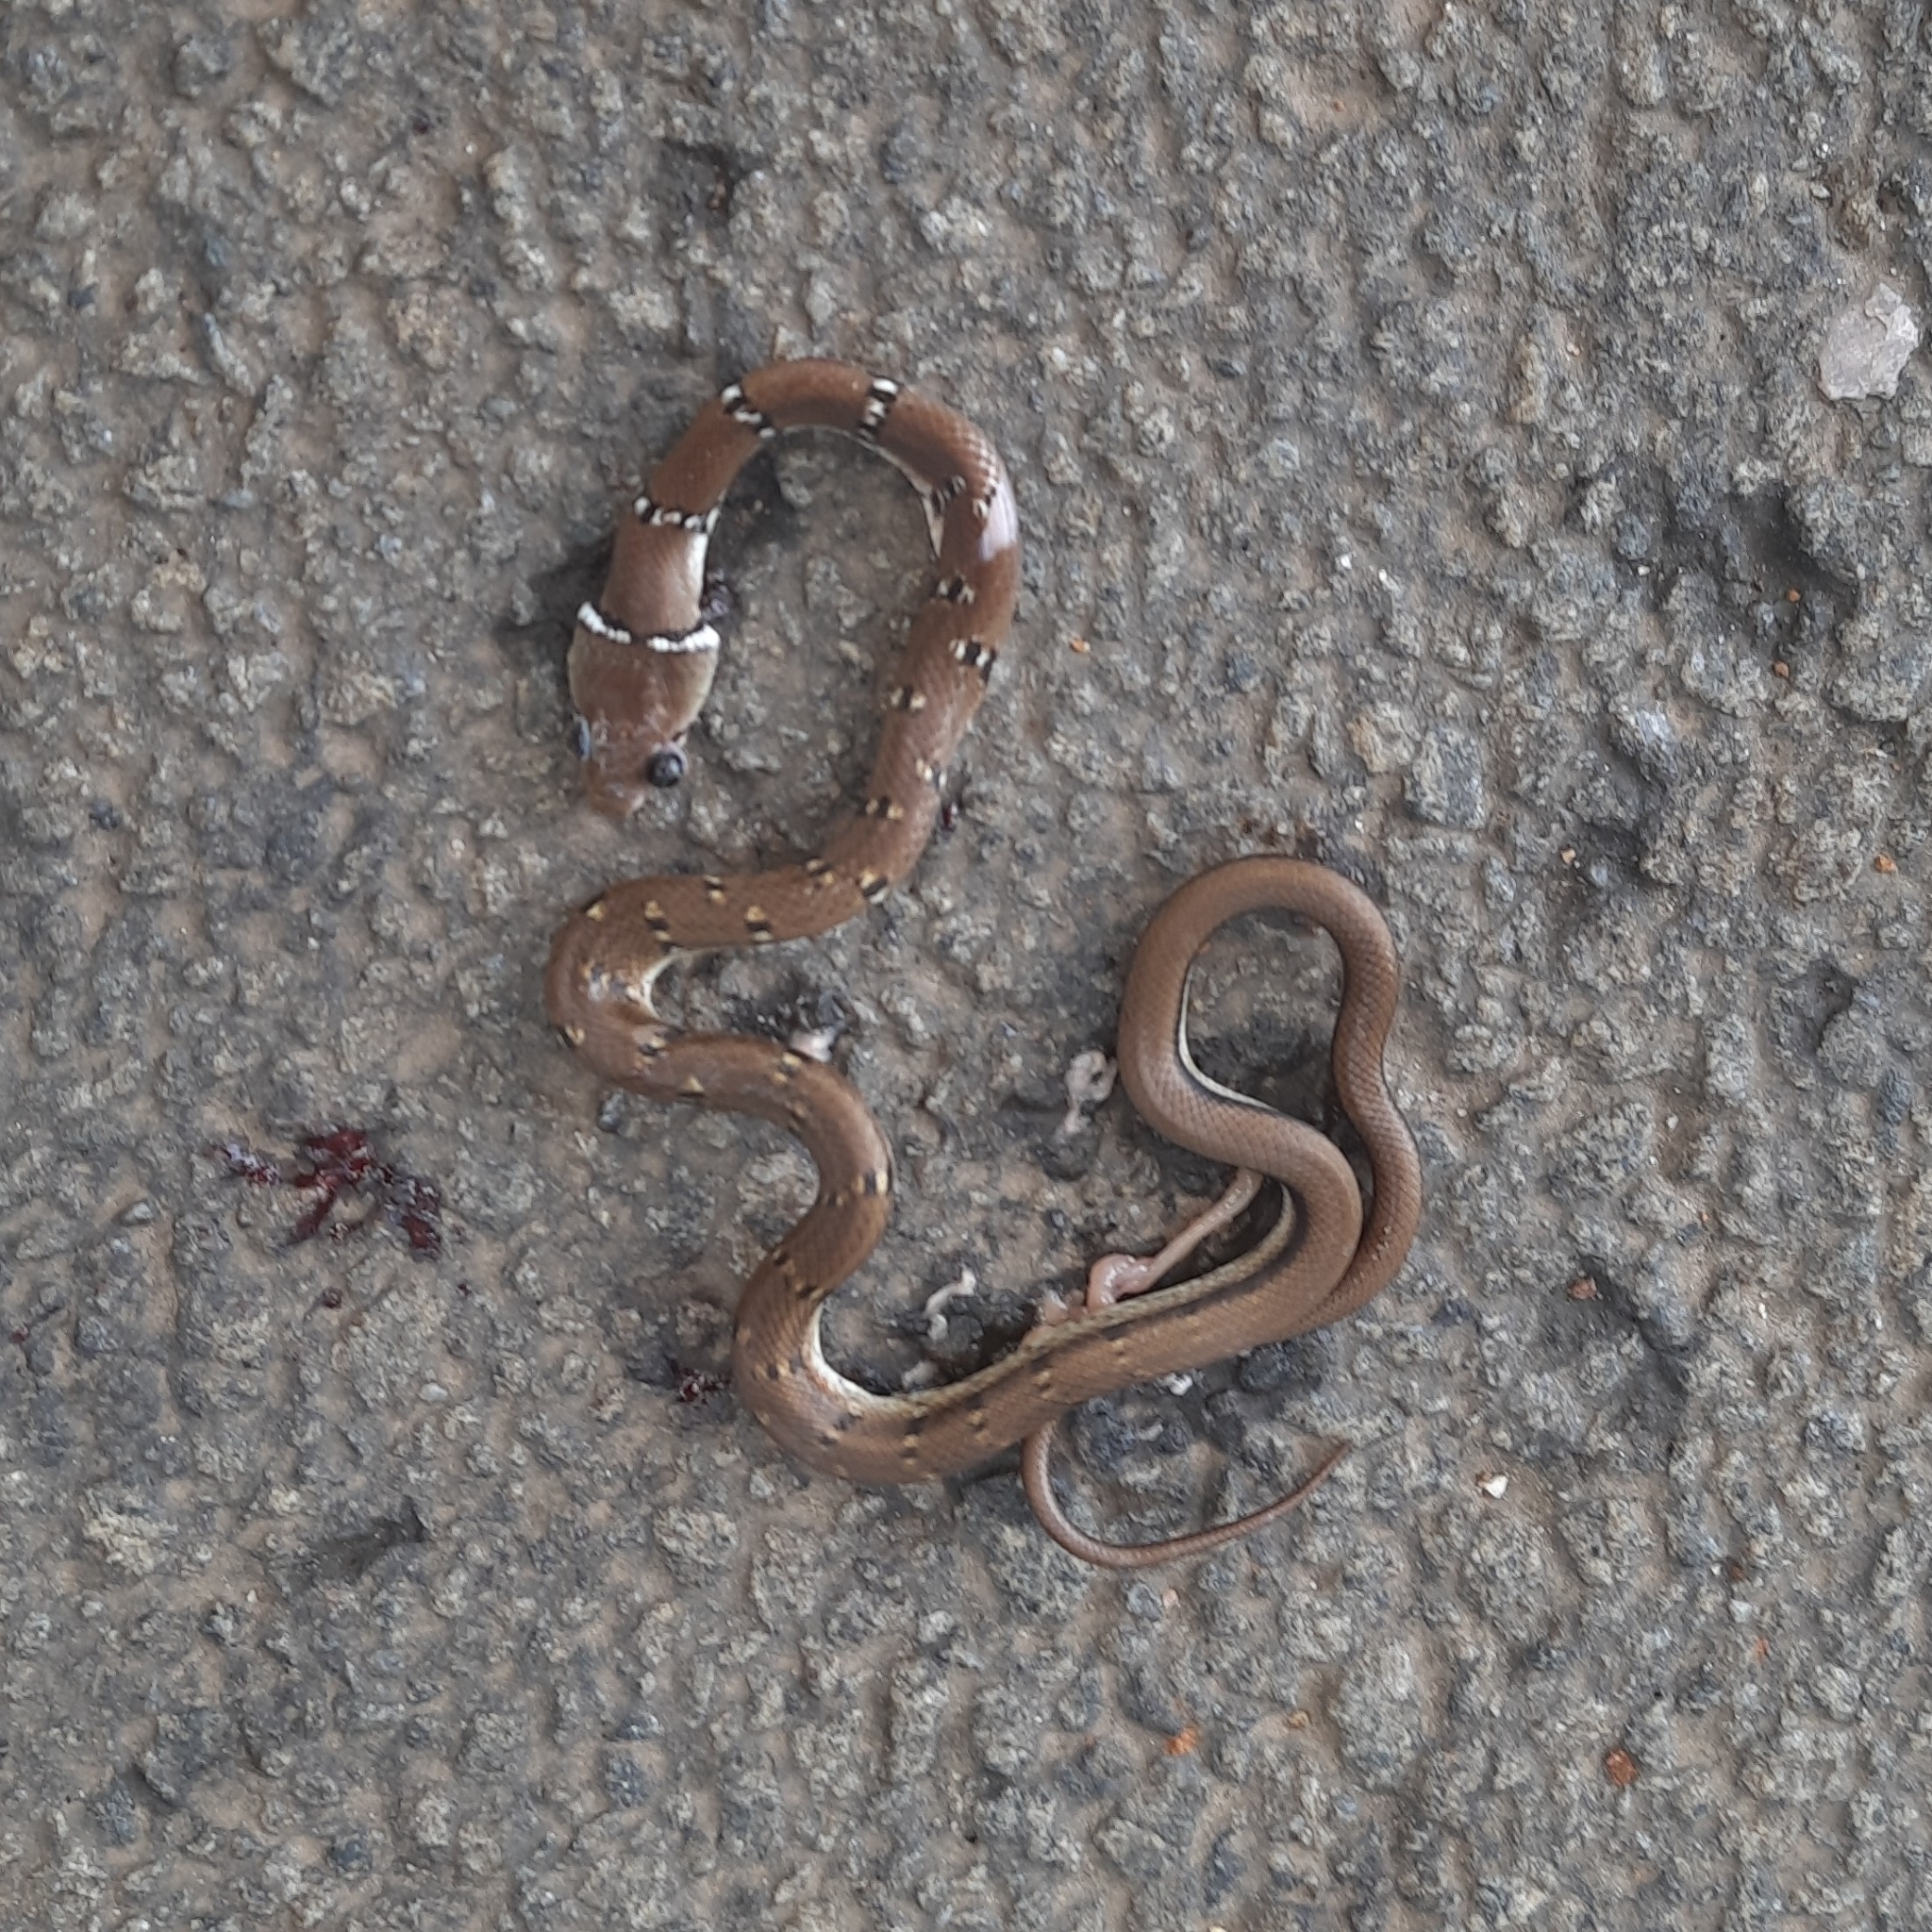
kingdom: Animalia
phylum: Chordata
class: Squamata
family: Colubridae
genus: Coelognathus
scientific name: Coelognathus helena
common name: Trinket snake
